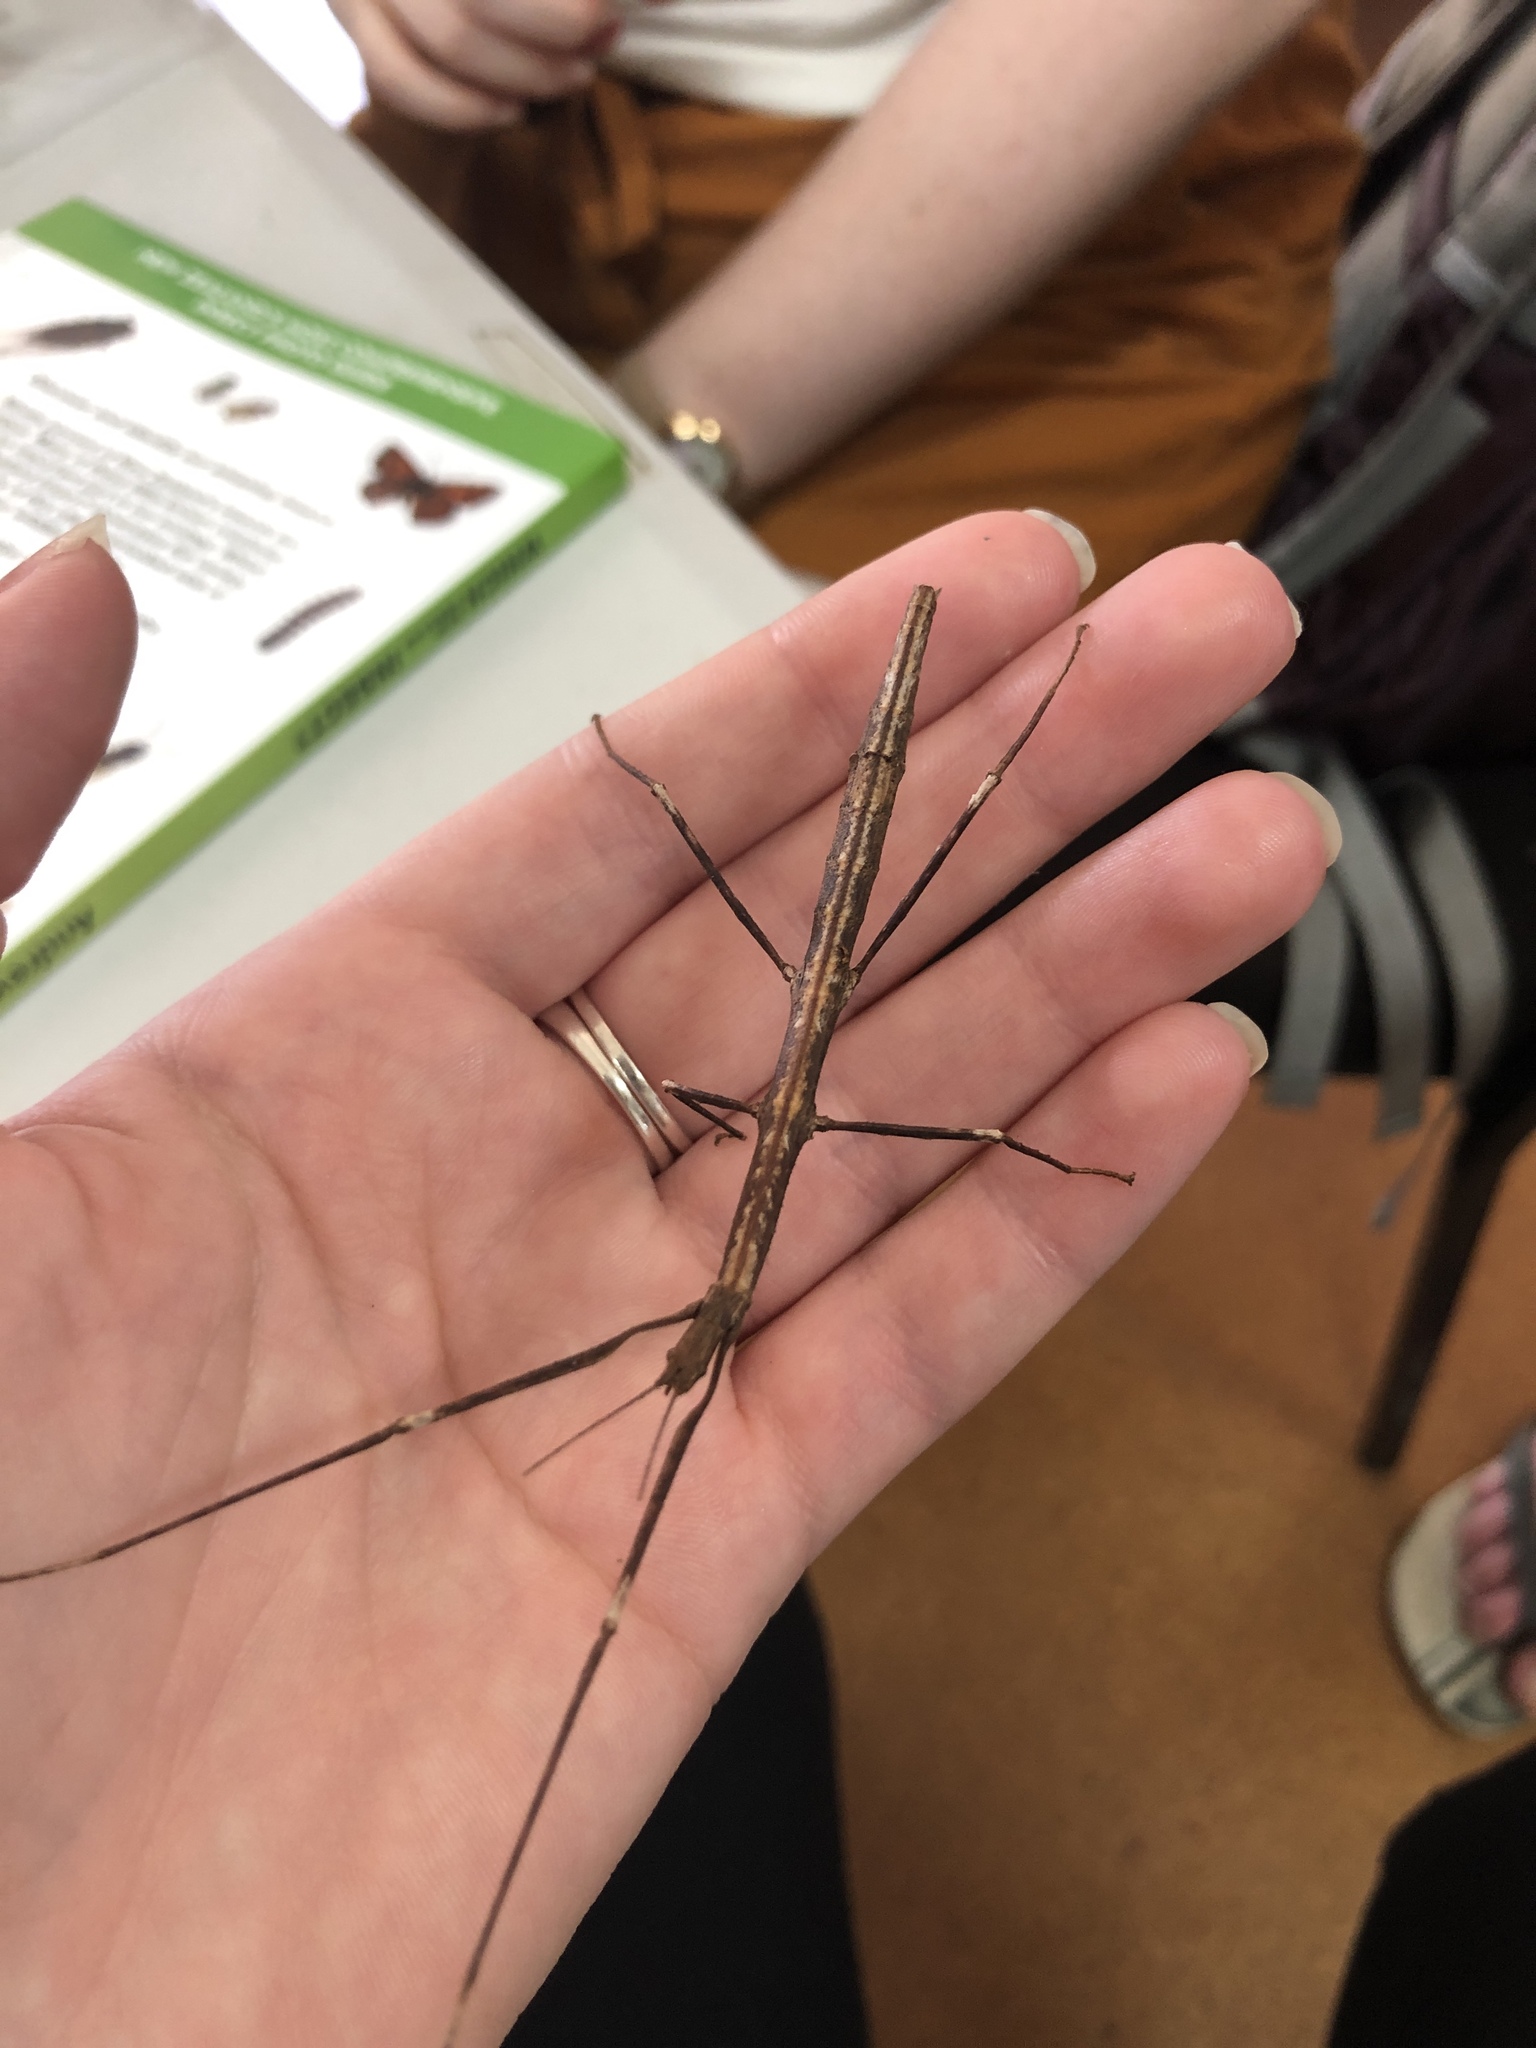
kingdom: Animalia
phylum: Arthropoda
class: Insecta
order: Phasmida
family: Phasmatidae
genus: Asteliaphasma
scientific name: Asteliaphasma jucundum
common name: The kauri forest stick insect
